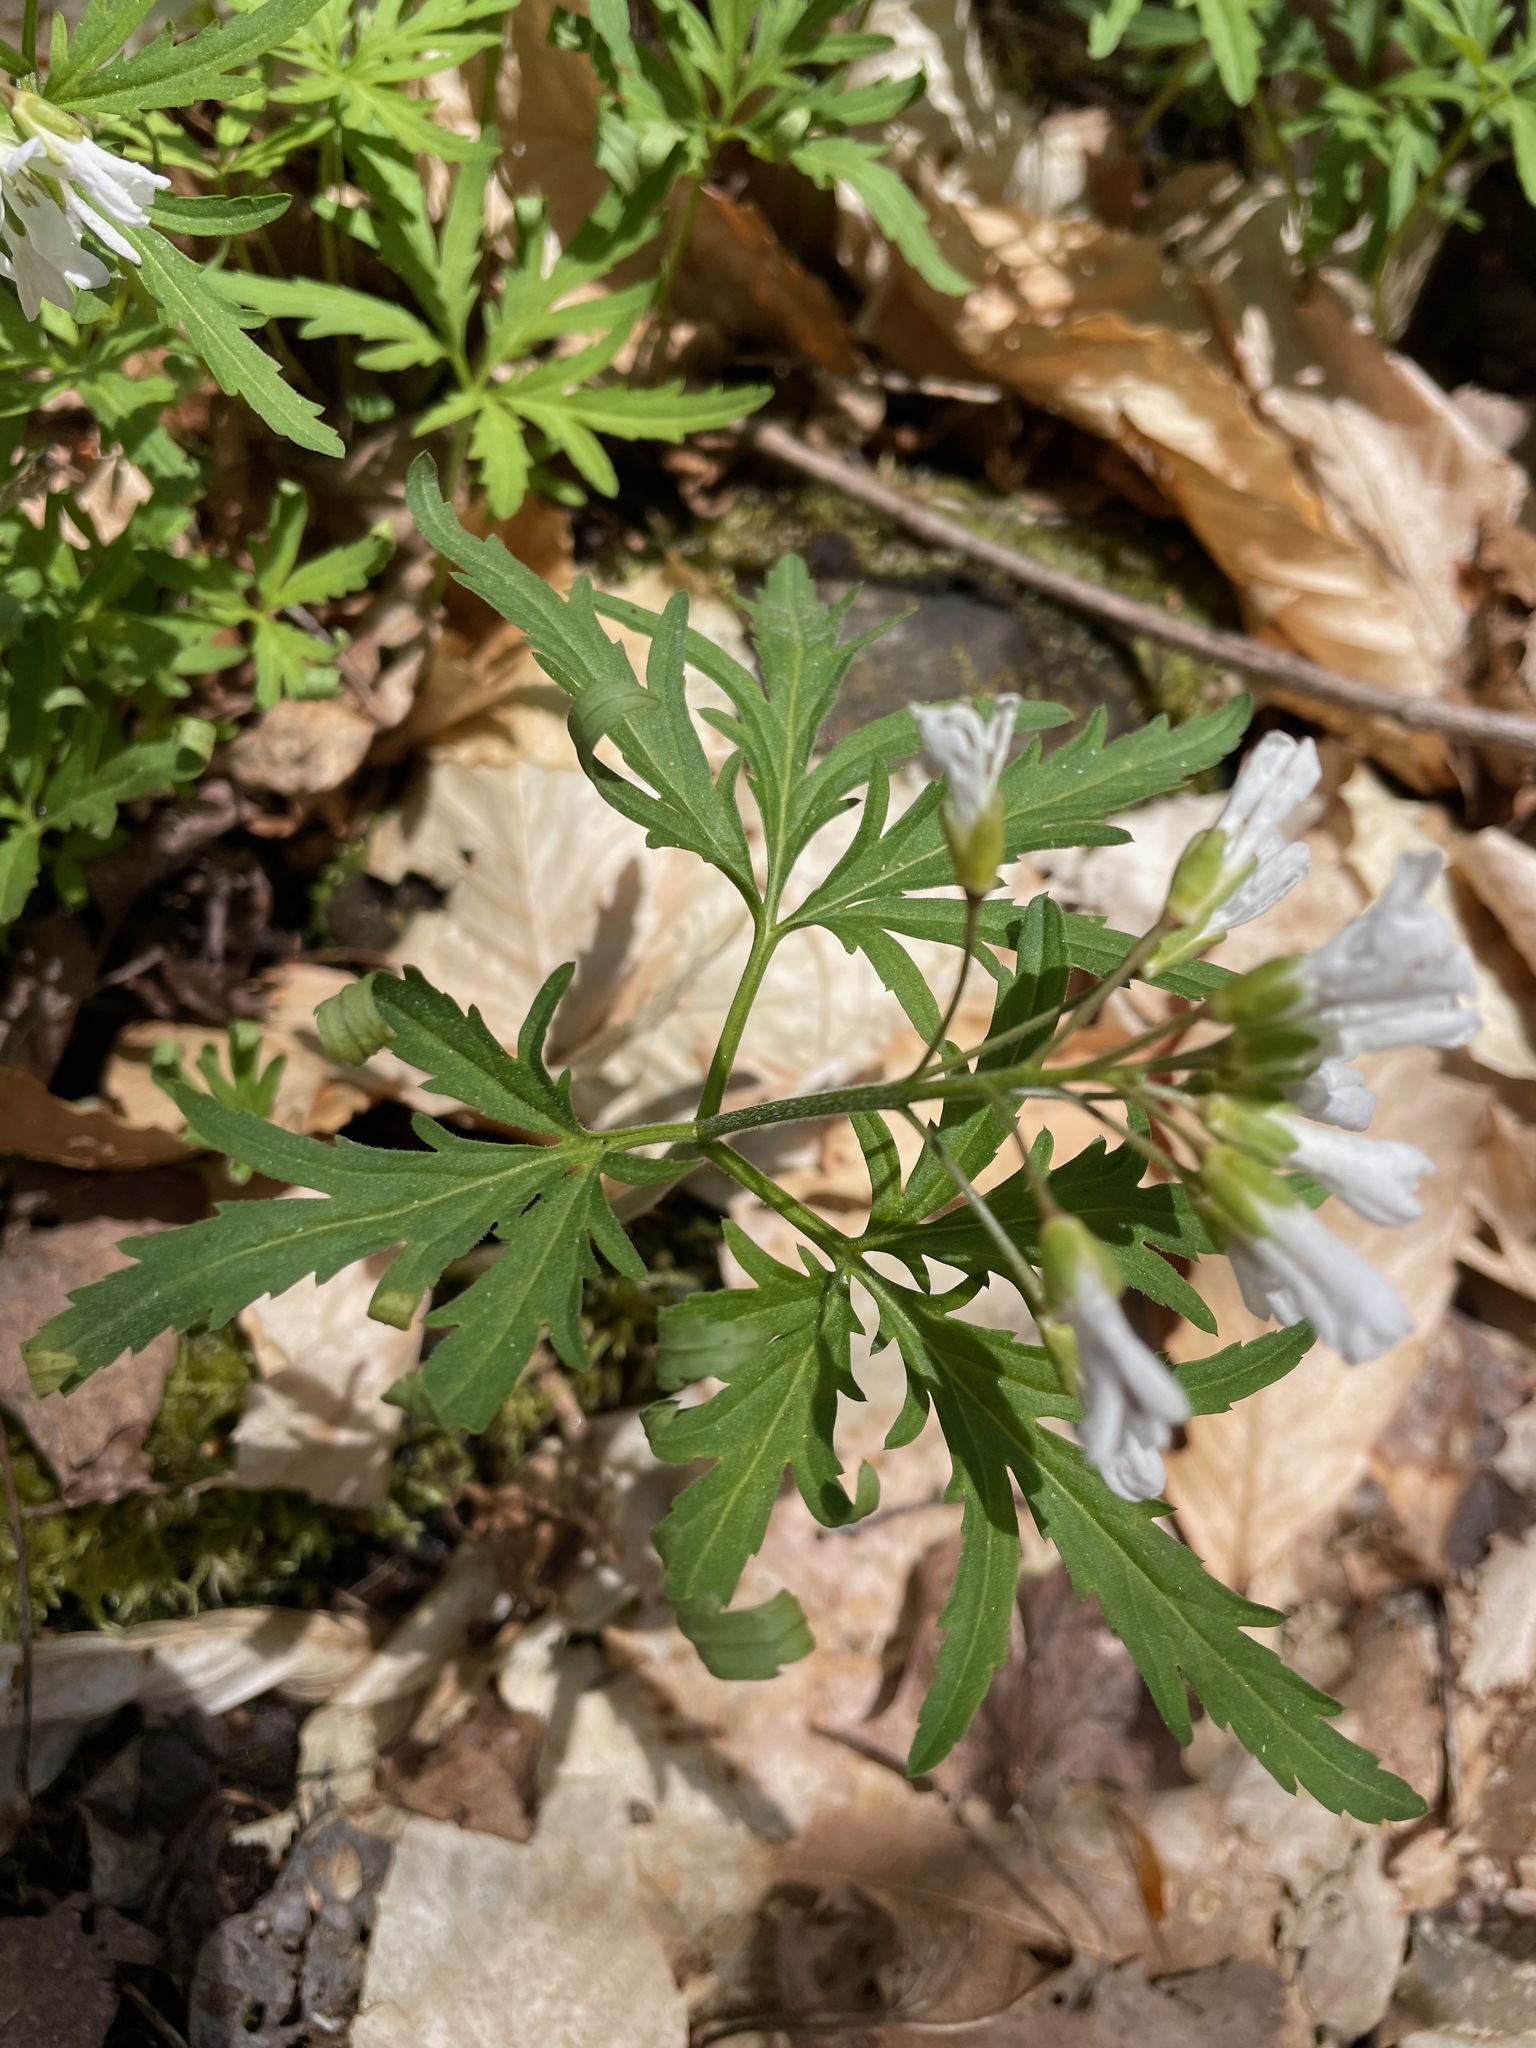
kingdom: Plantae
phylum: Tracheophyta
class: Magnoliopsida
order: Brassicales
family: Brassicaceae
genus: Cardamine
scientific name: Cardamine concatenata
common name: Cut-leaf toothcup
